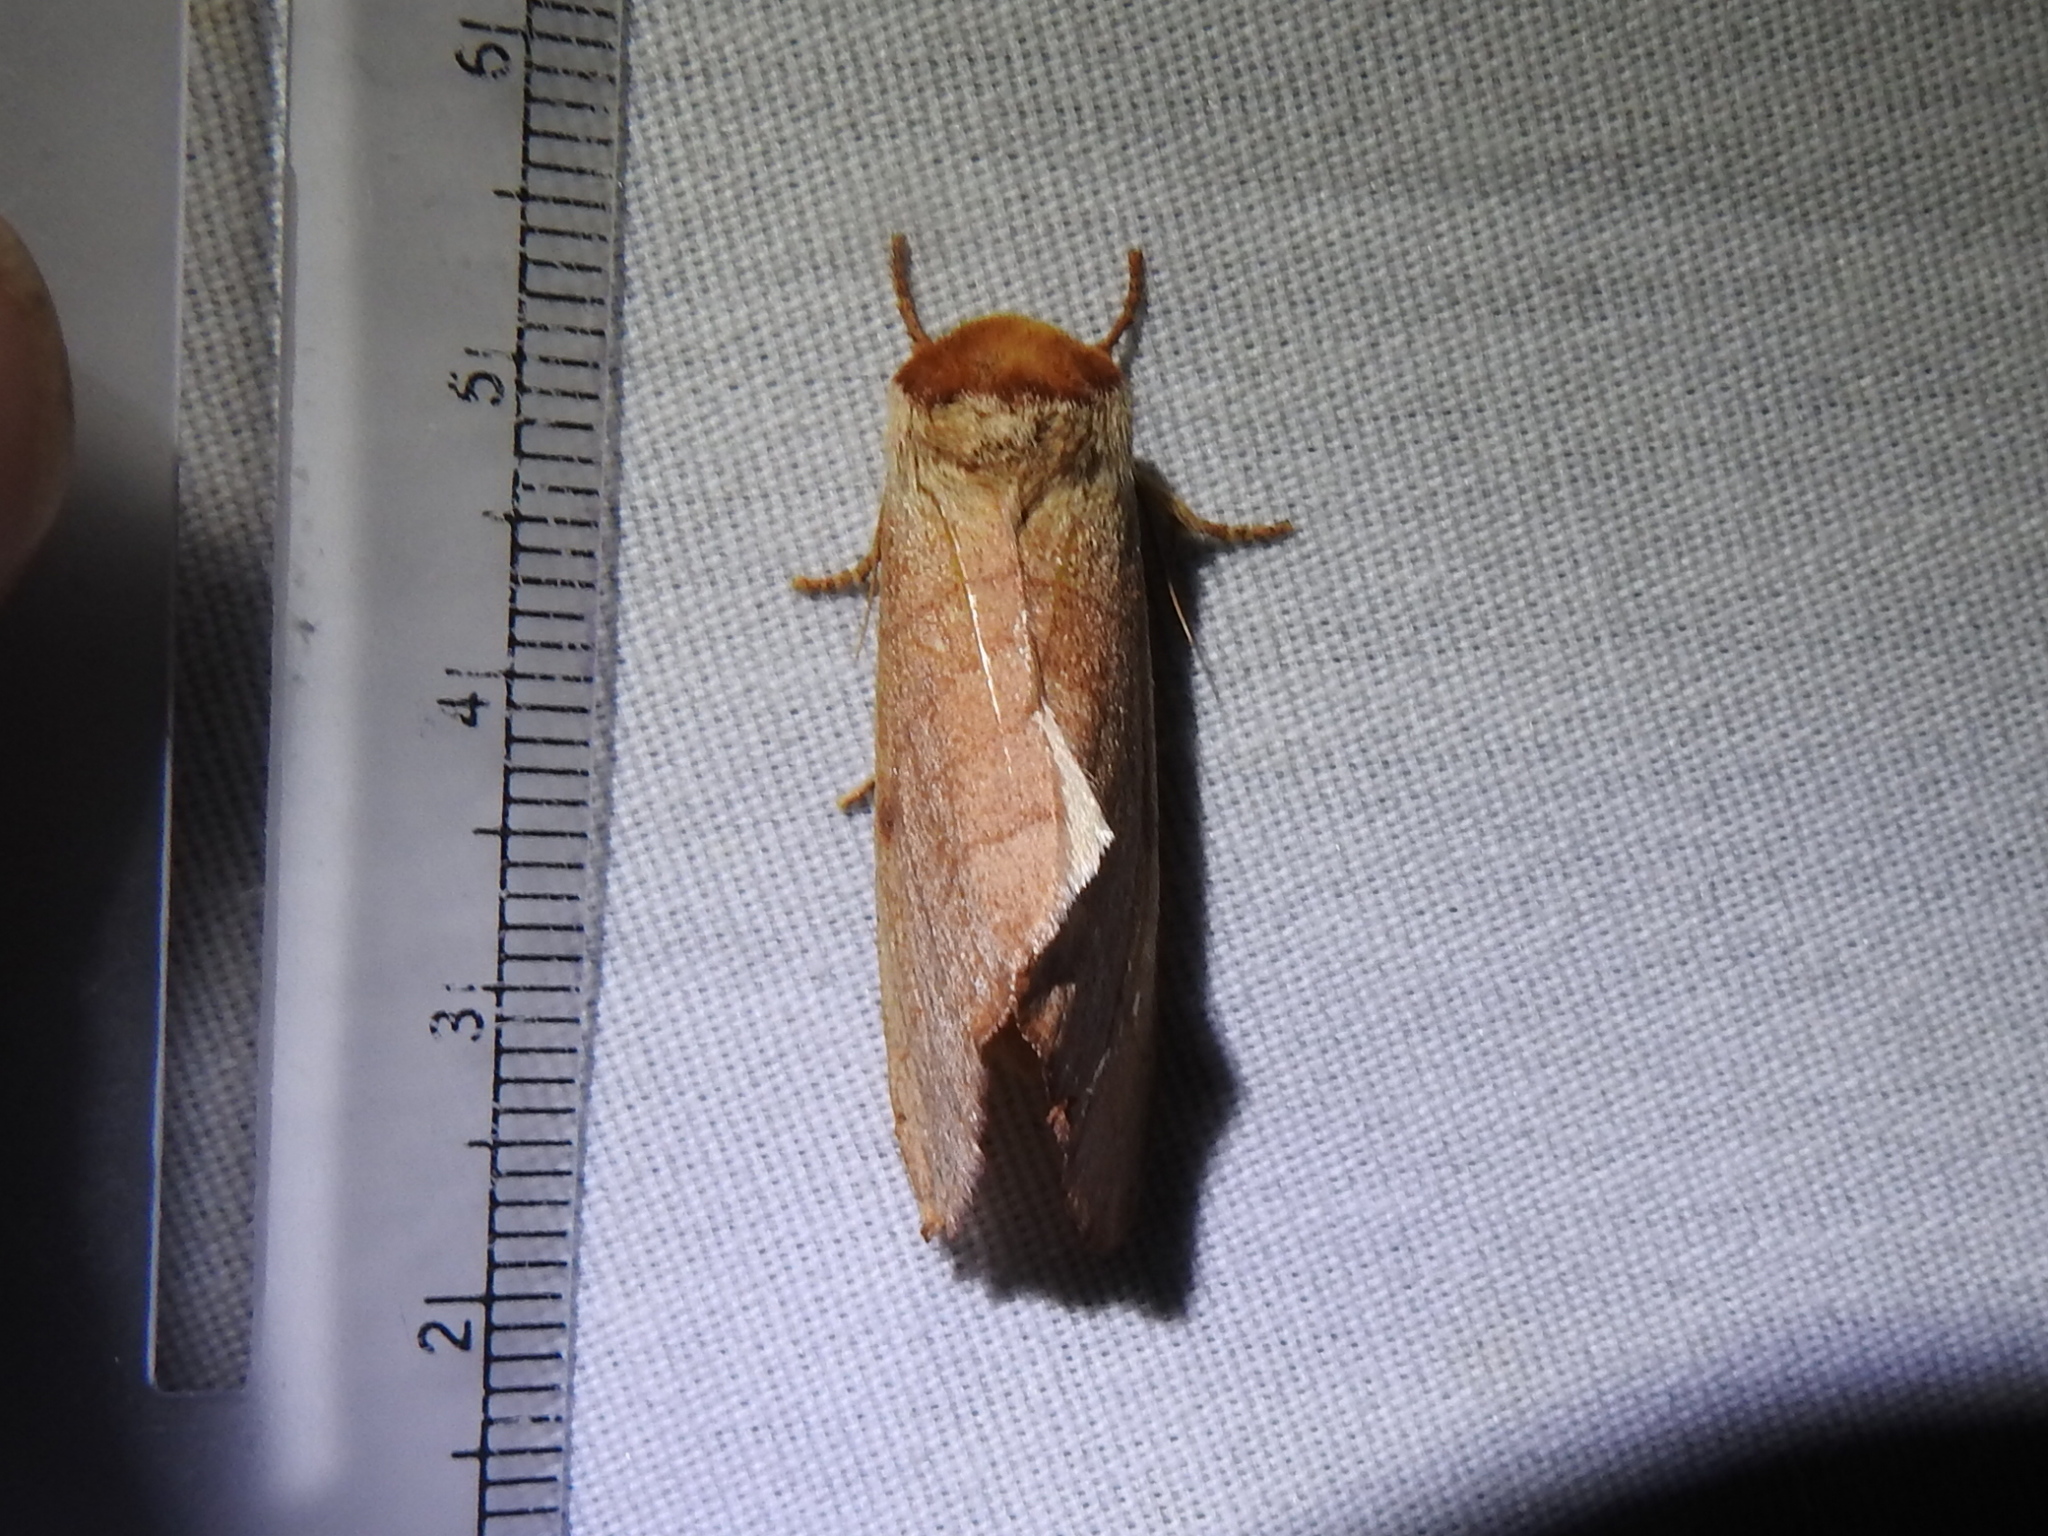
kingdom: Animalia
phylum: Arthropoda
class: Insecta
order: Lepidoptera
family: Notodontidae
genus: Datana
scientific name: Datana perspicua
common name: Spotted datana
